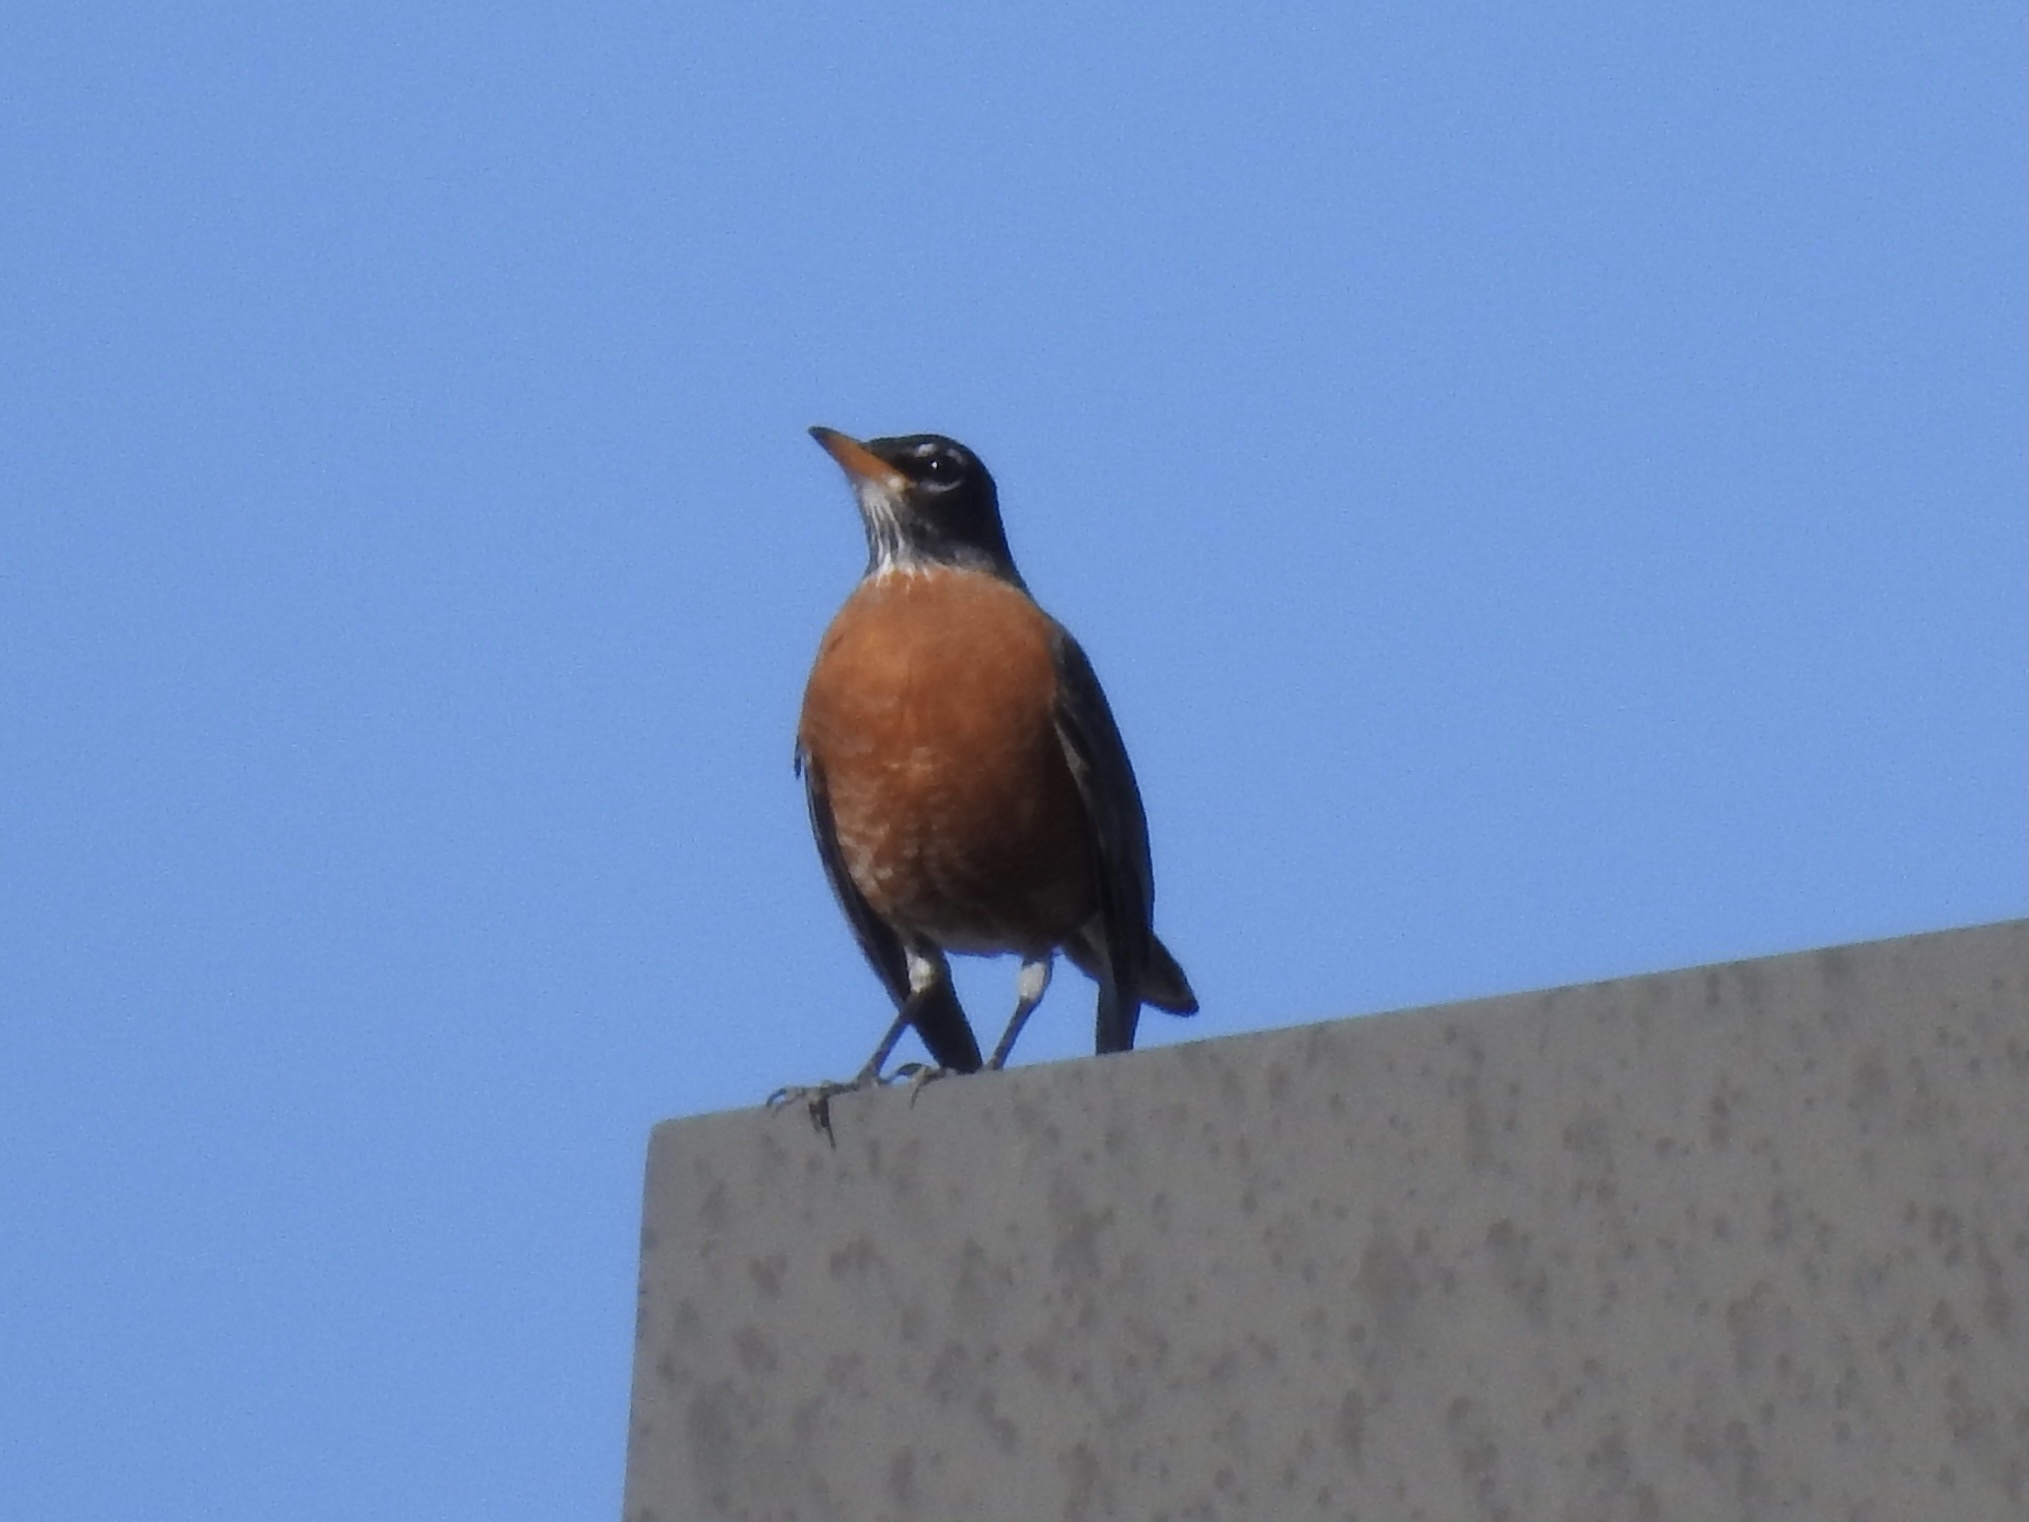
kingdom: Animalia
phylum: Chordata
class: Aves
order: Passeriformes
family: Turdidae
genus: Turdus
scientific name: Turdus migratorius
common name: American robin
